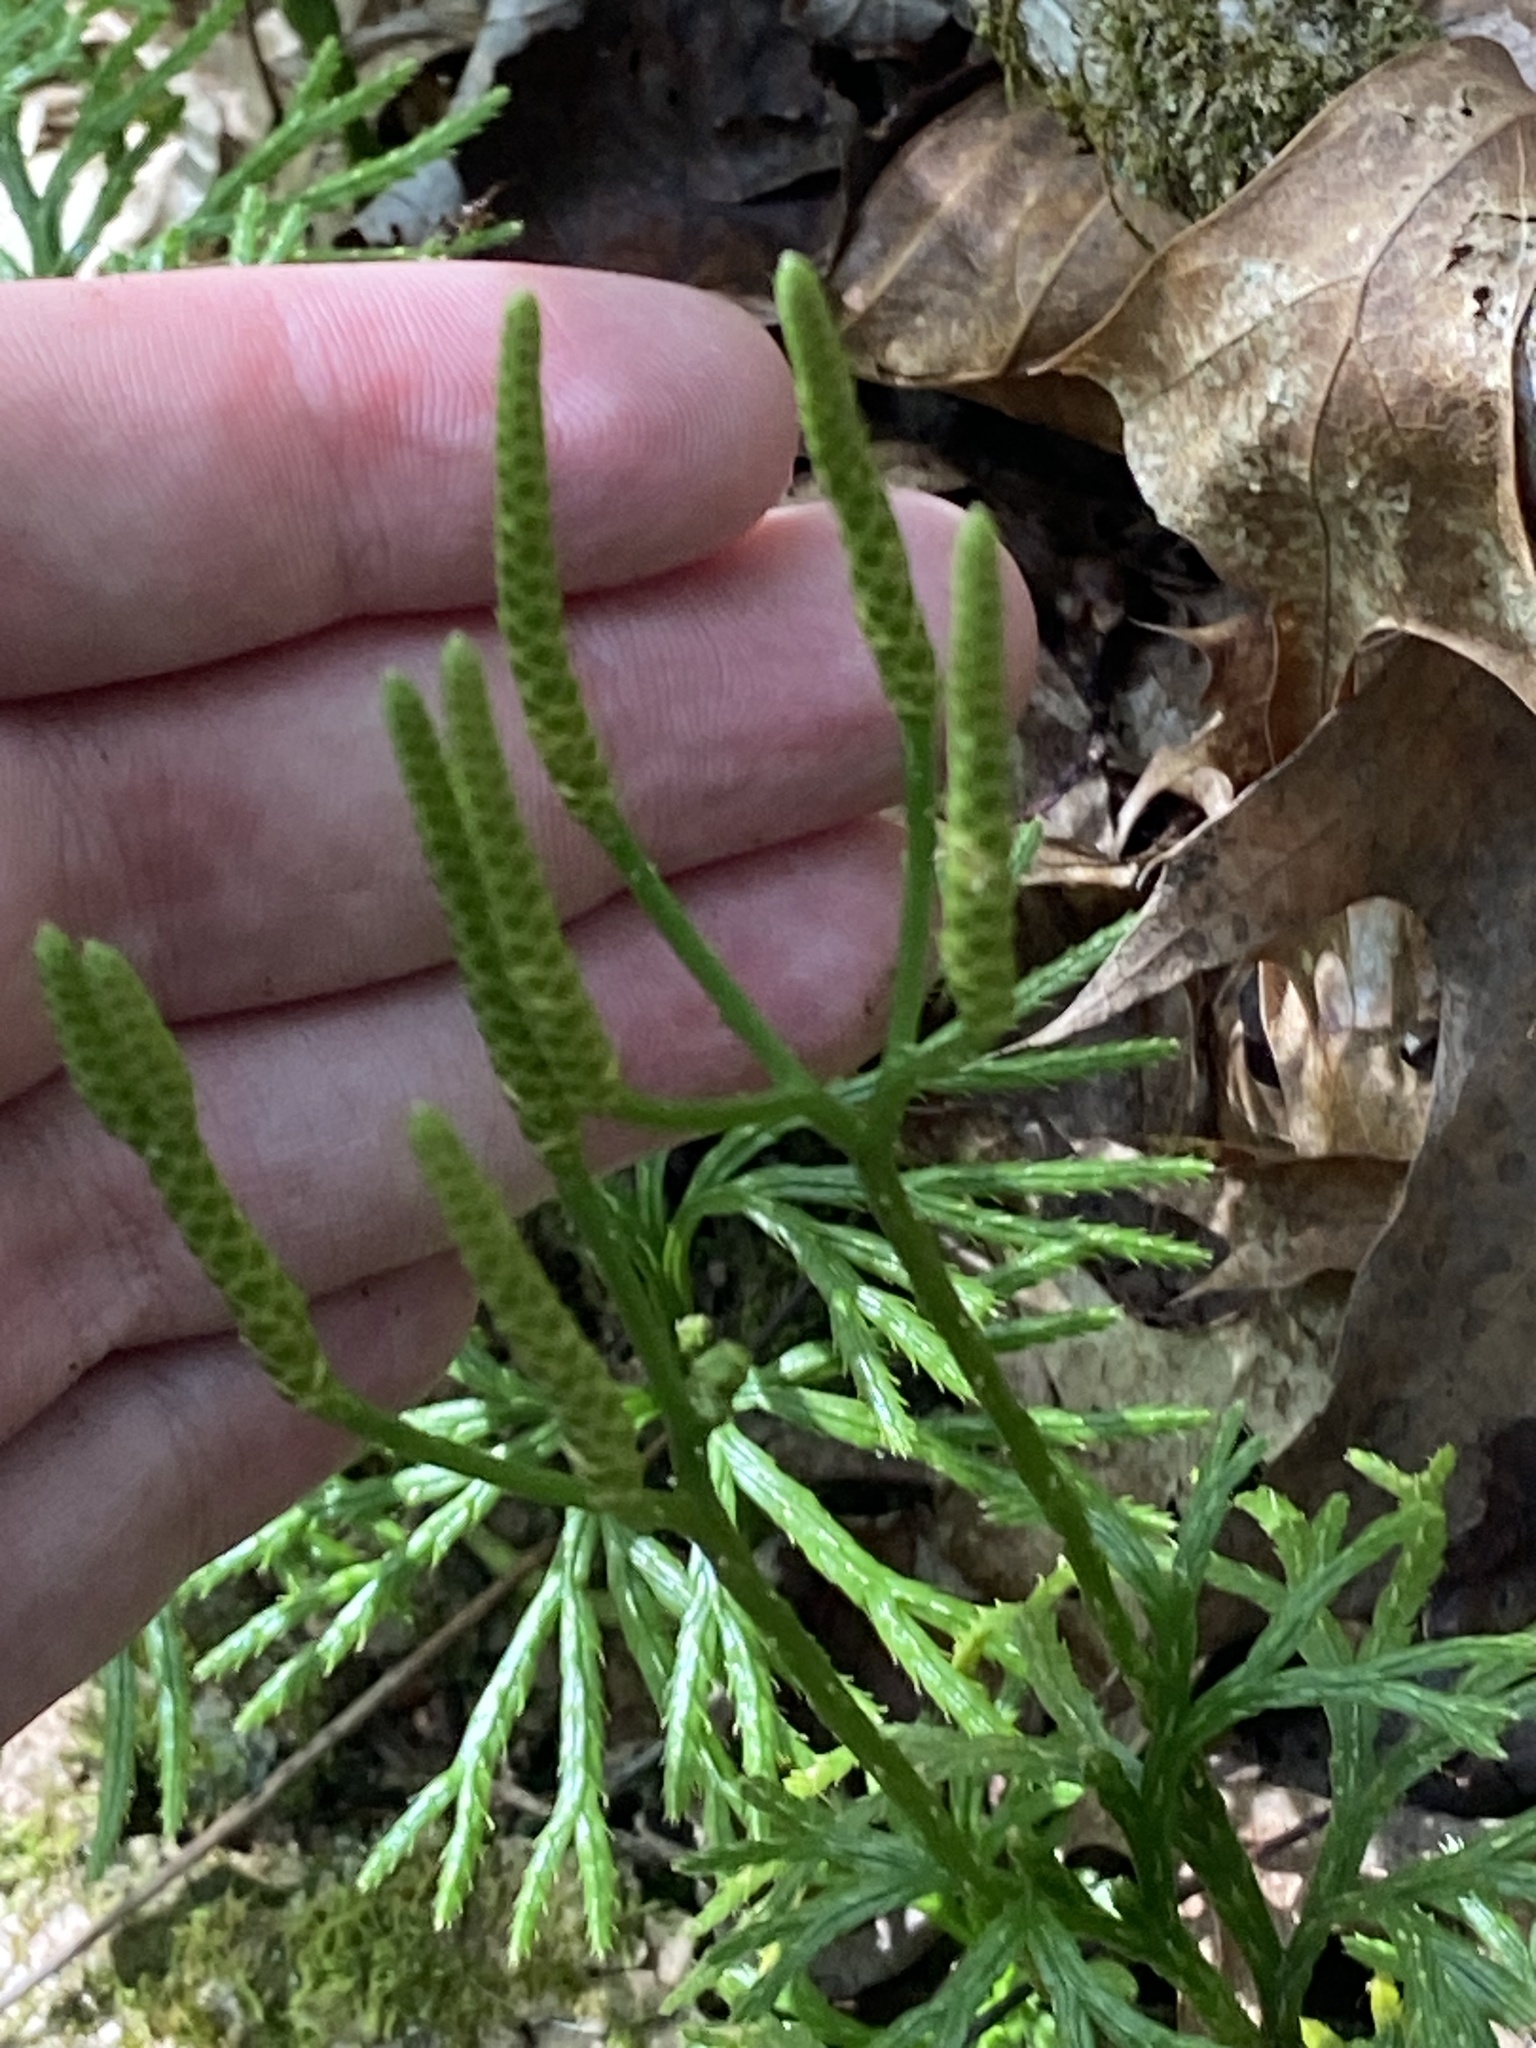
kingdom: Plantae
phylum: Tracheophyta
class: Lycopodiopsida
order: Lycopodiales
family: Lycopodiaceae
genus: Diphasiastrum
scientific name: Diphasiastrum digitatum
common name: Southern running-pine
